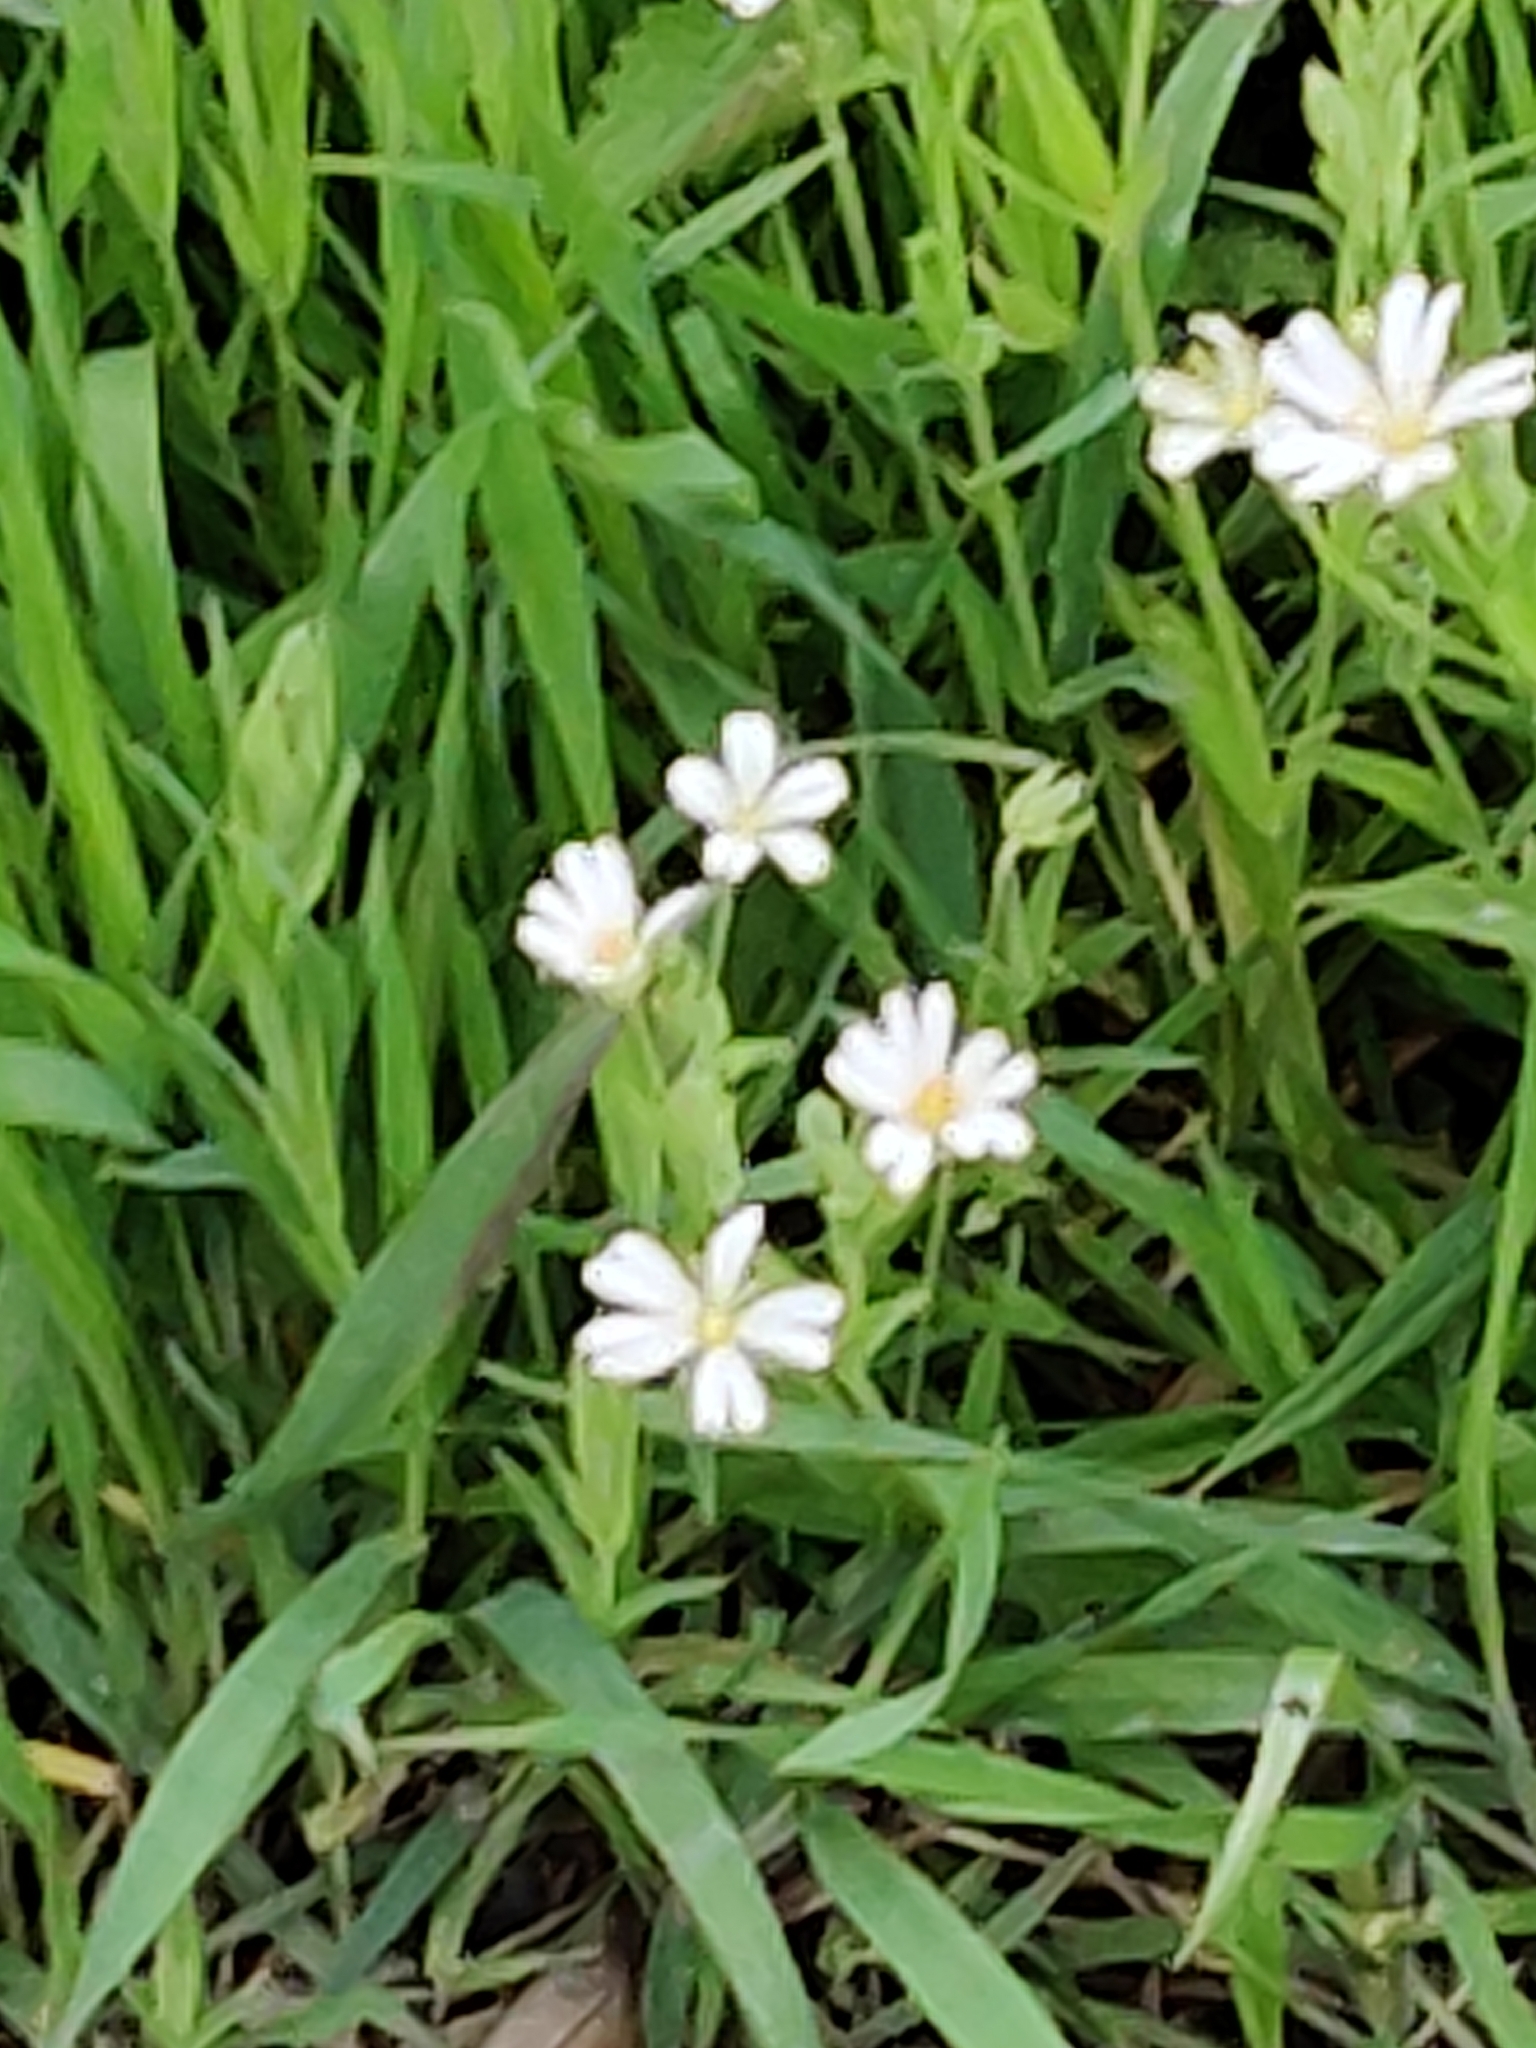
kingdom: Plantae
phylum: Tracheophyta
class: Magnoliopsida
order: Caryophyllales
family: Caryophyllaceae
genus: Rabelera
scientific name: Rabelera holostea
